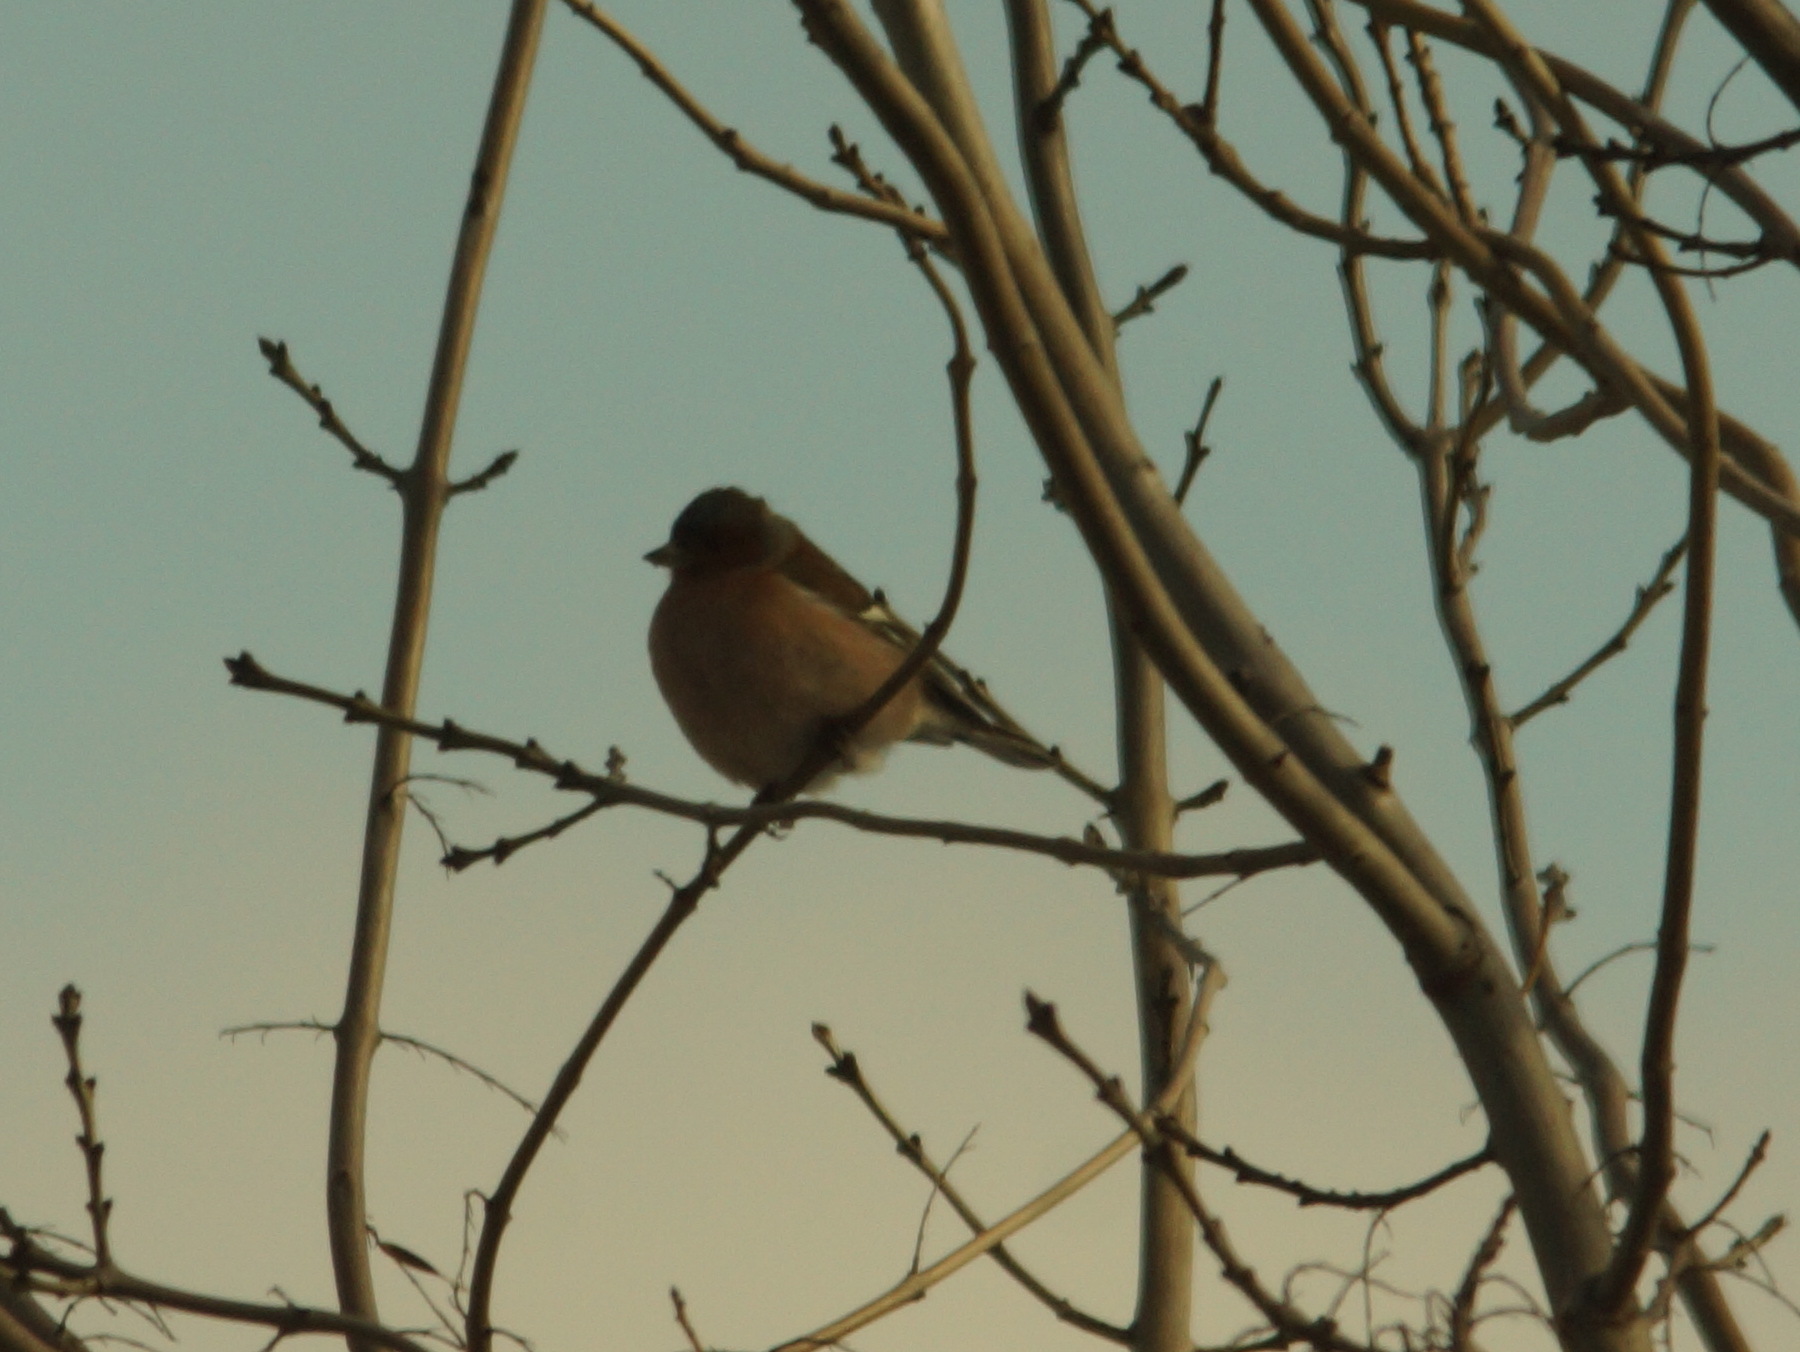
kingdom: Animalia
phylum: Chordata
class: Aves
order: Passeriformes
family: Fringillidae
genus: Fringilla
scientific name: Fringilla coelebs
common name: Common chaffinch
